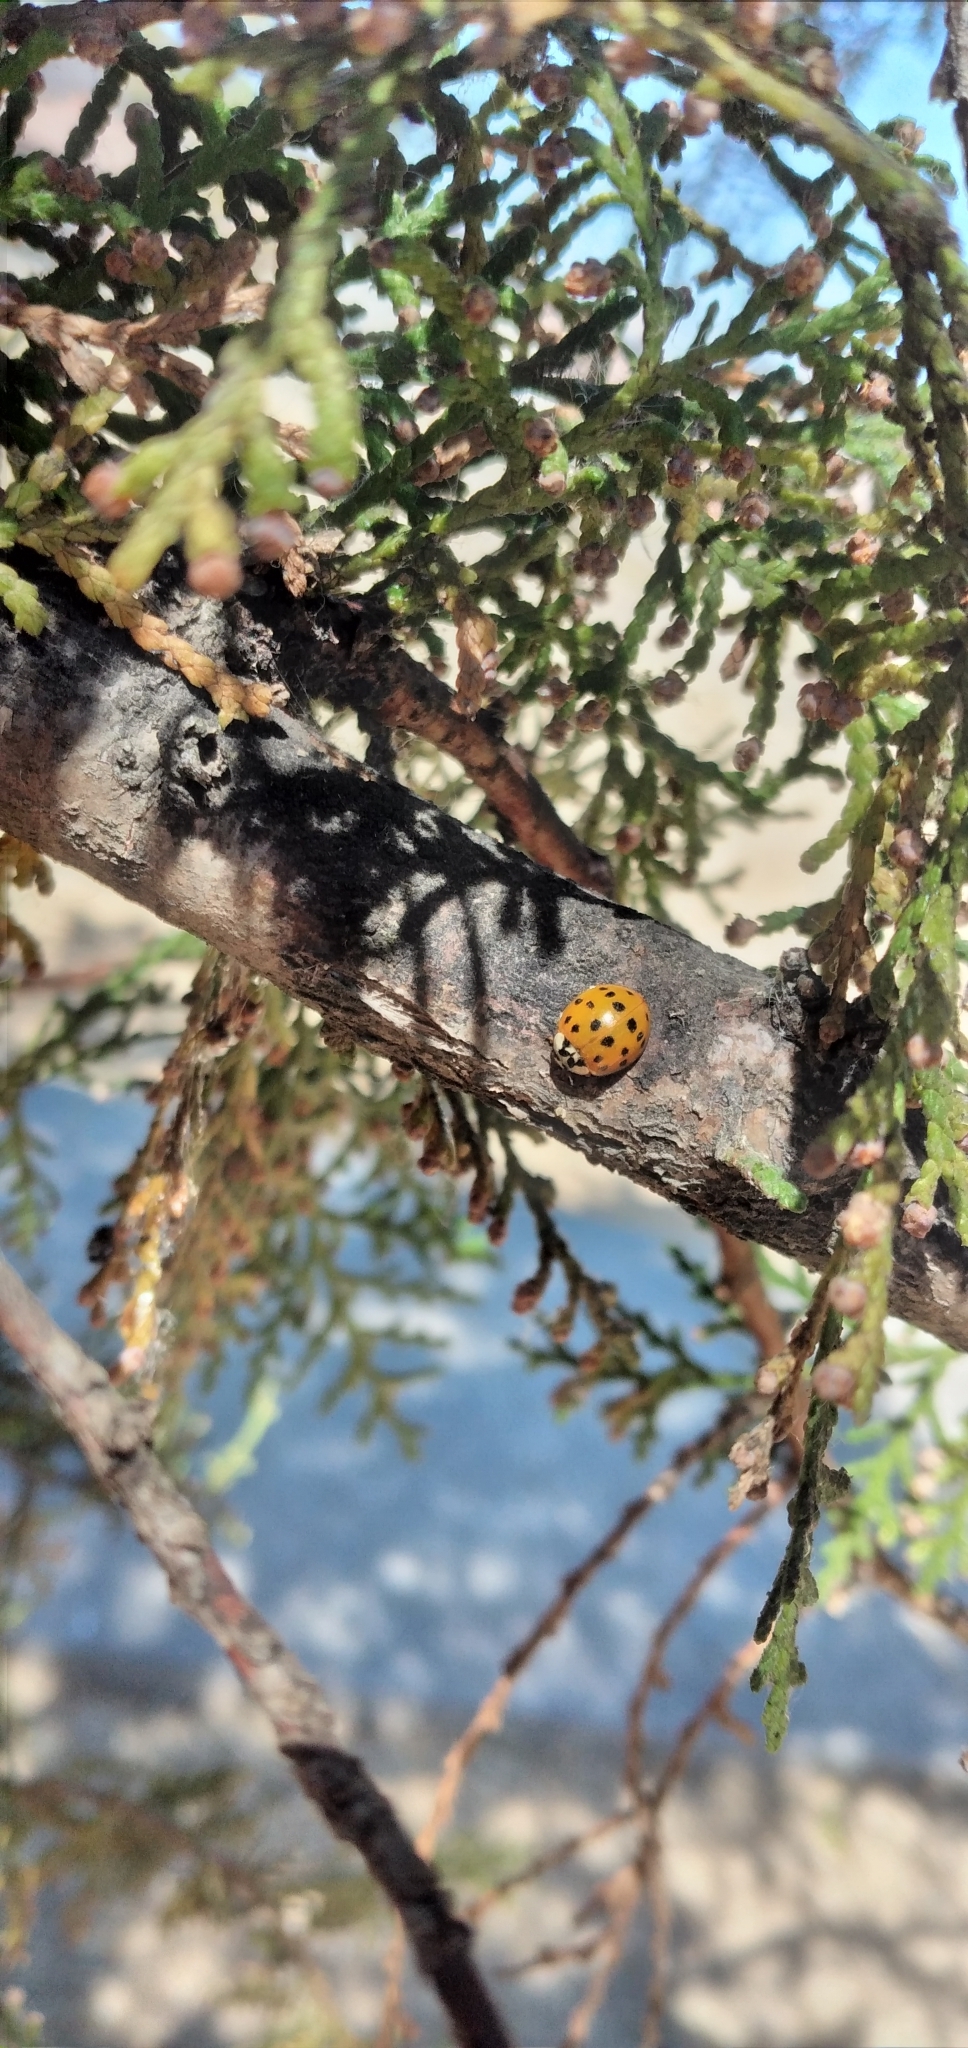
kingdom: Animalia
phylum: Arthropoda
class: Insecta
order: Coleoptera
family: Coccinellidae
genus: Harmonia
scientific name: Harmonia axyridis
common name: Harlequin ladybird
